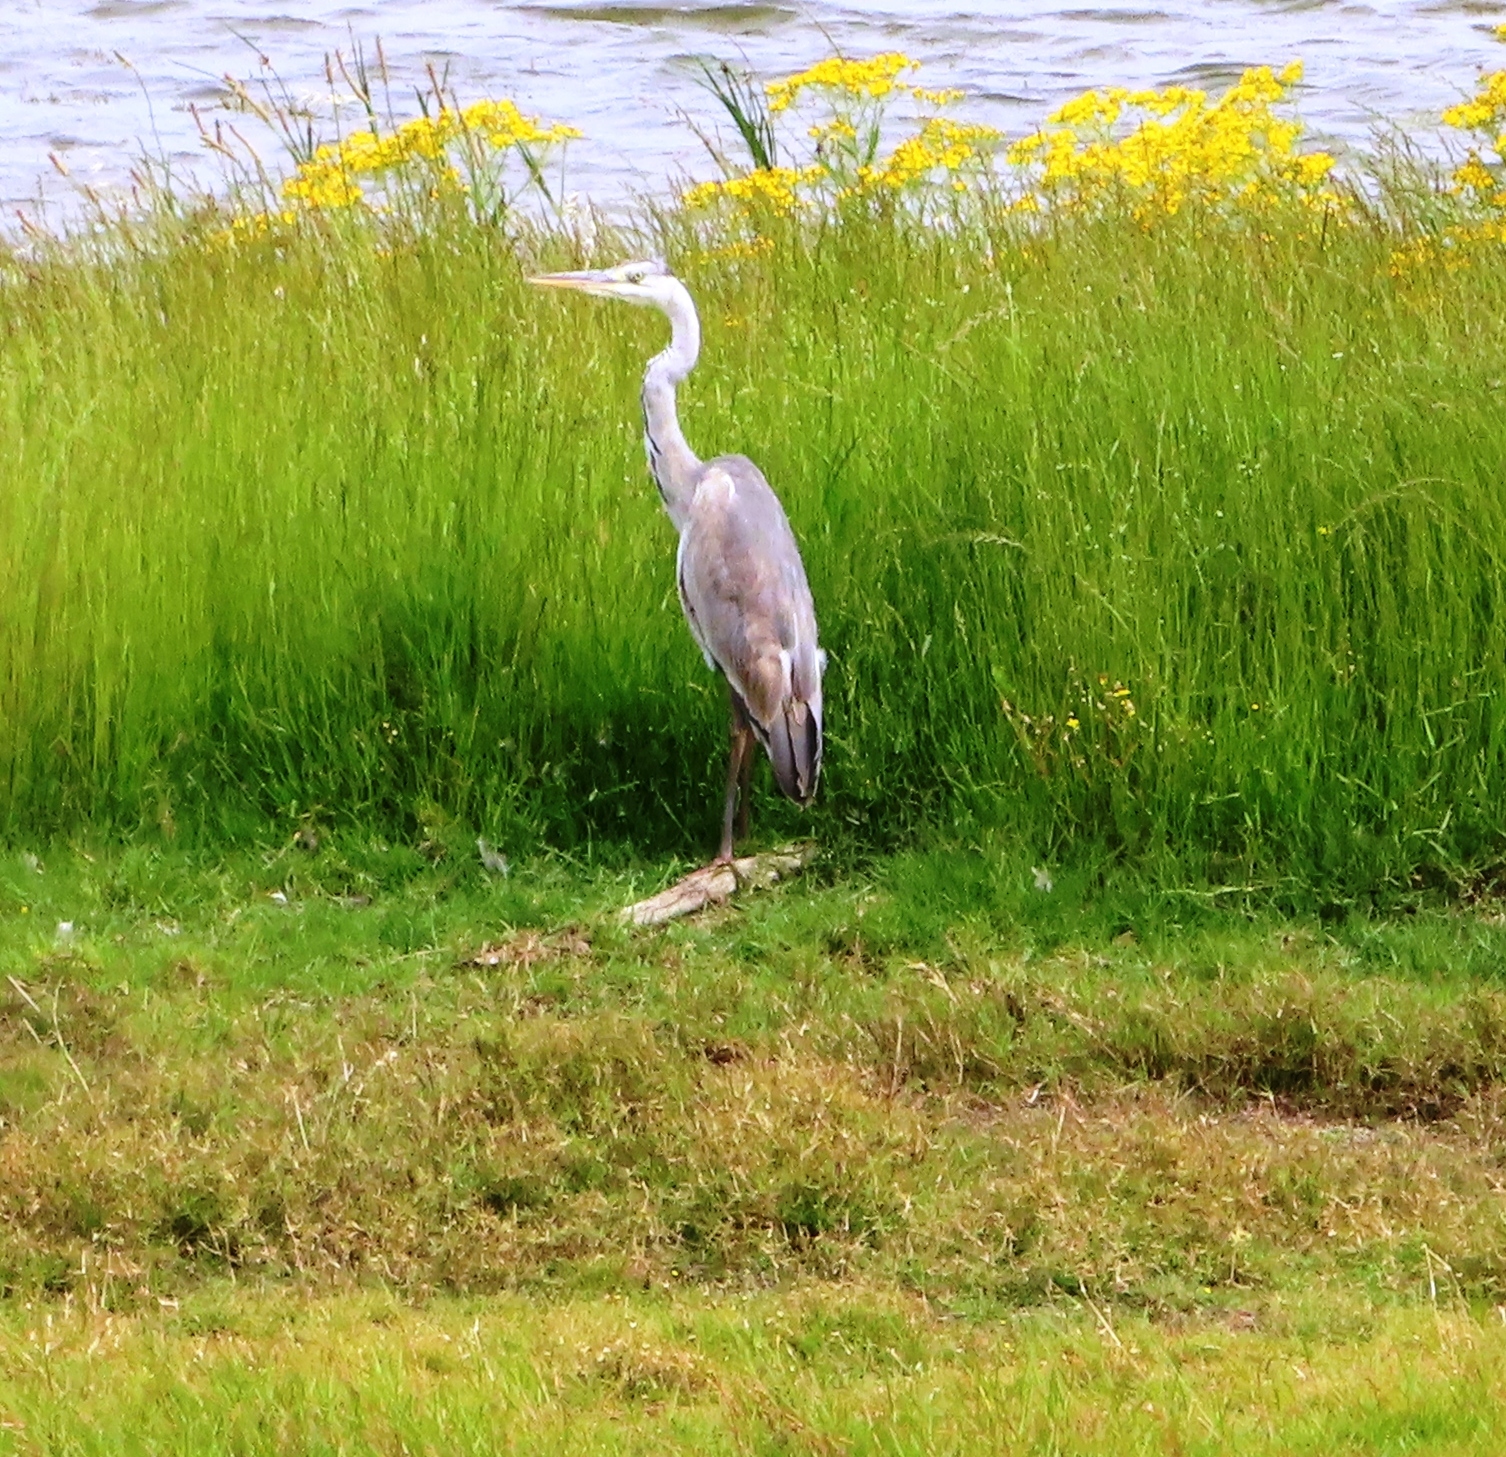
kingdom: Animalia
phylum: Chordata
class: Aves
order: Pelecaniformes
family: Ardeidae
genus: Ardea
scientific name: Ardea cinerea
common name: Grey heron
